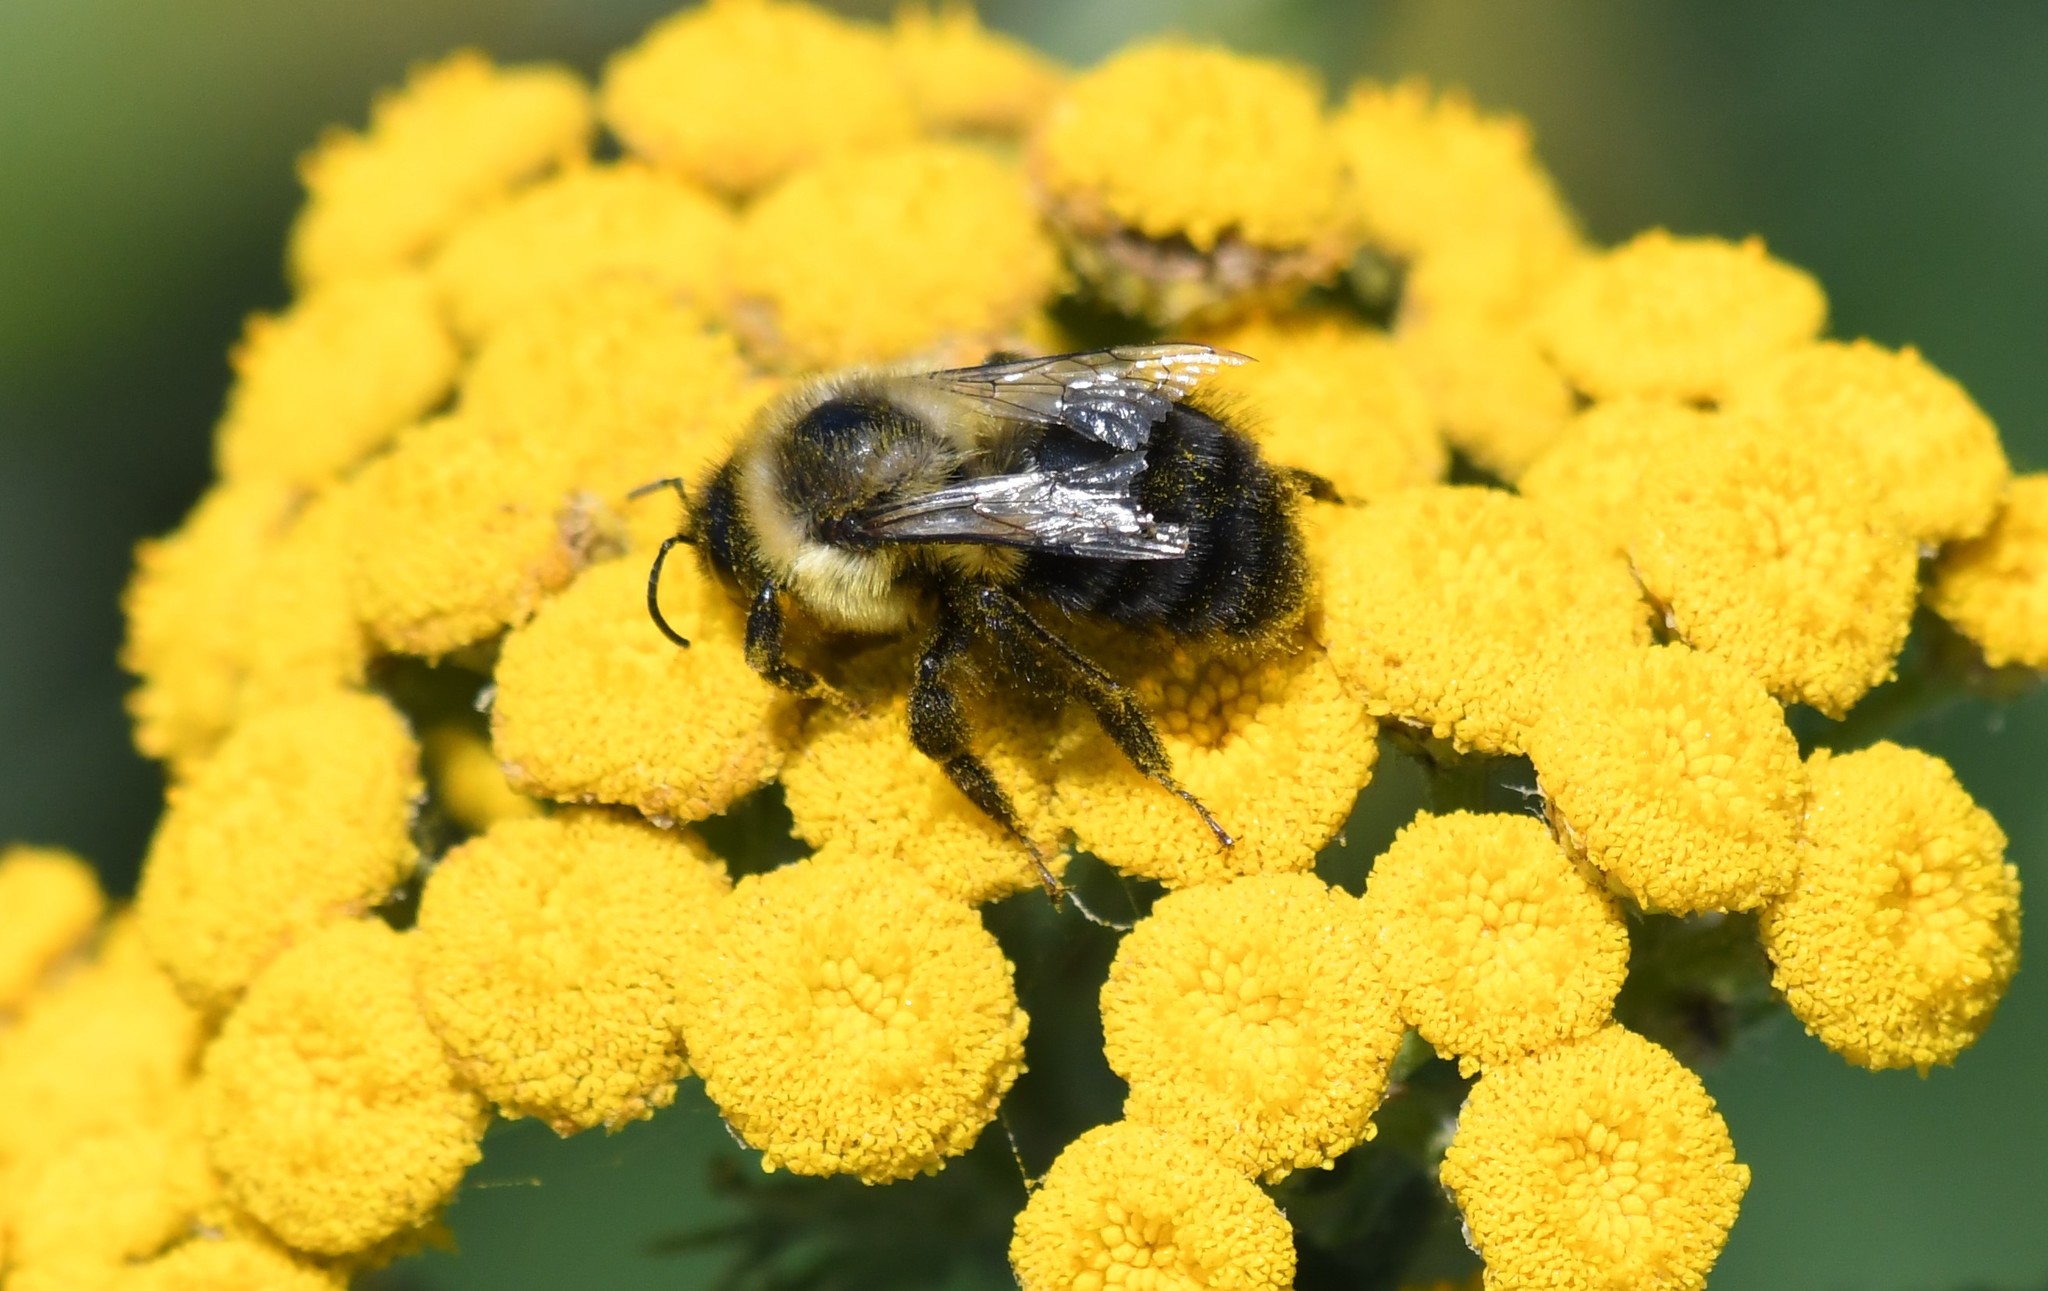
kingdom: Animalia
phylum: Arthropoda
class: Insecta
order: Hymenoptera
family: Apidae
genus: Bombus
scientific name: Bombus impatiens
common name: Common eastern bumble bee
